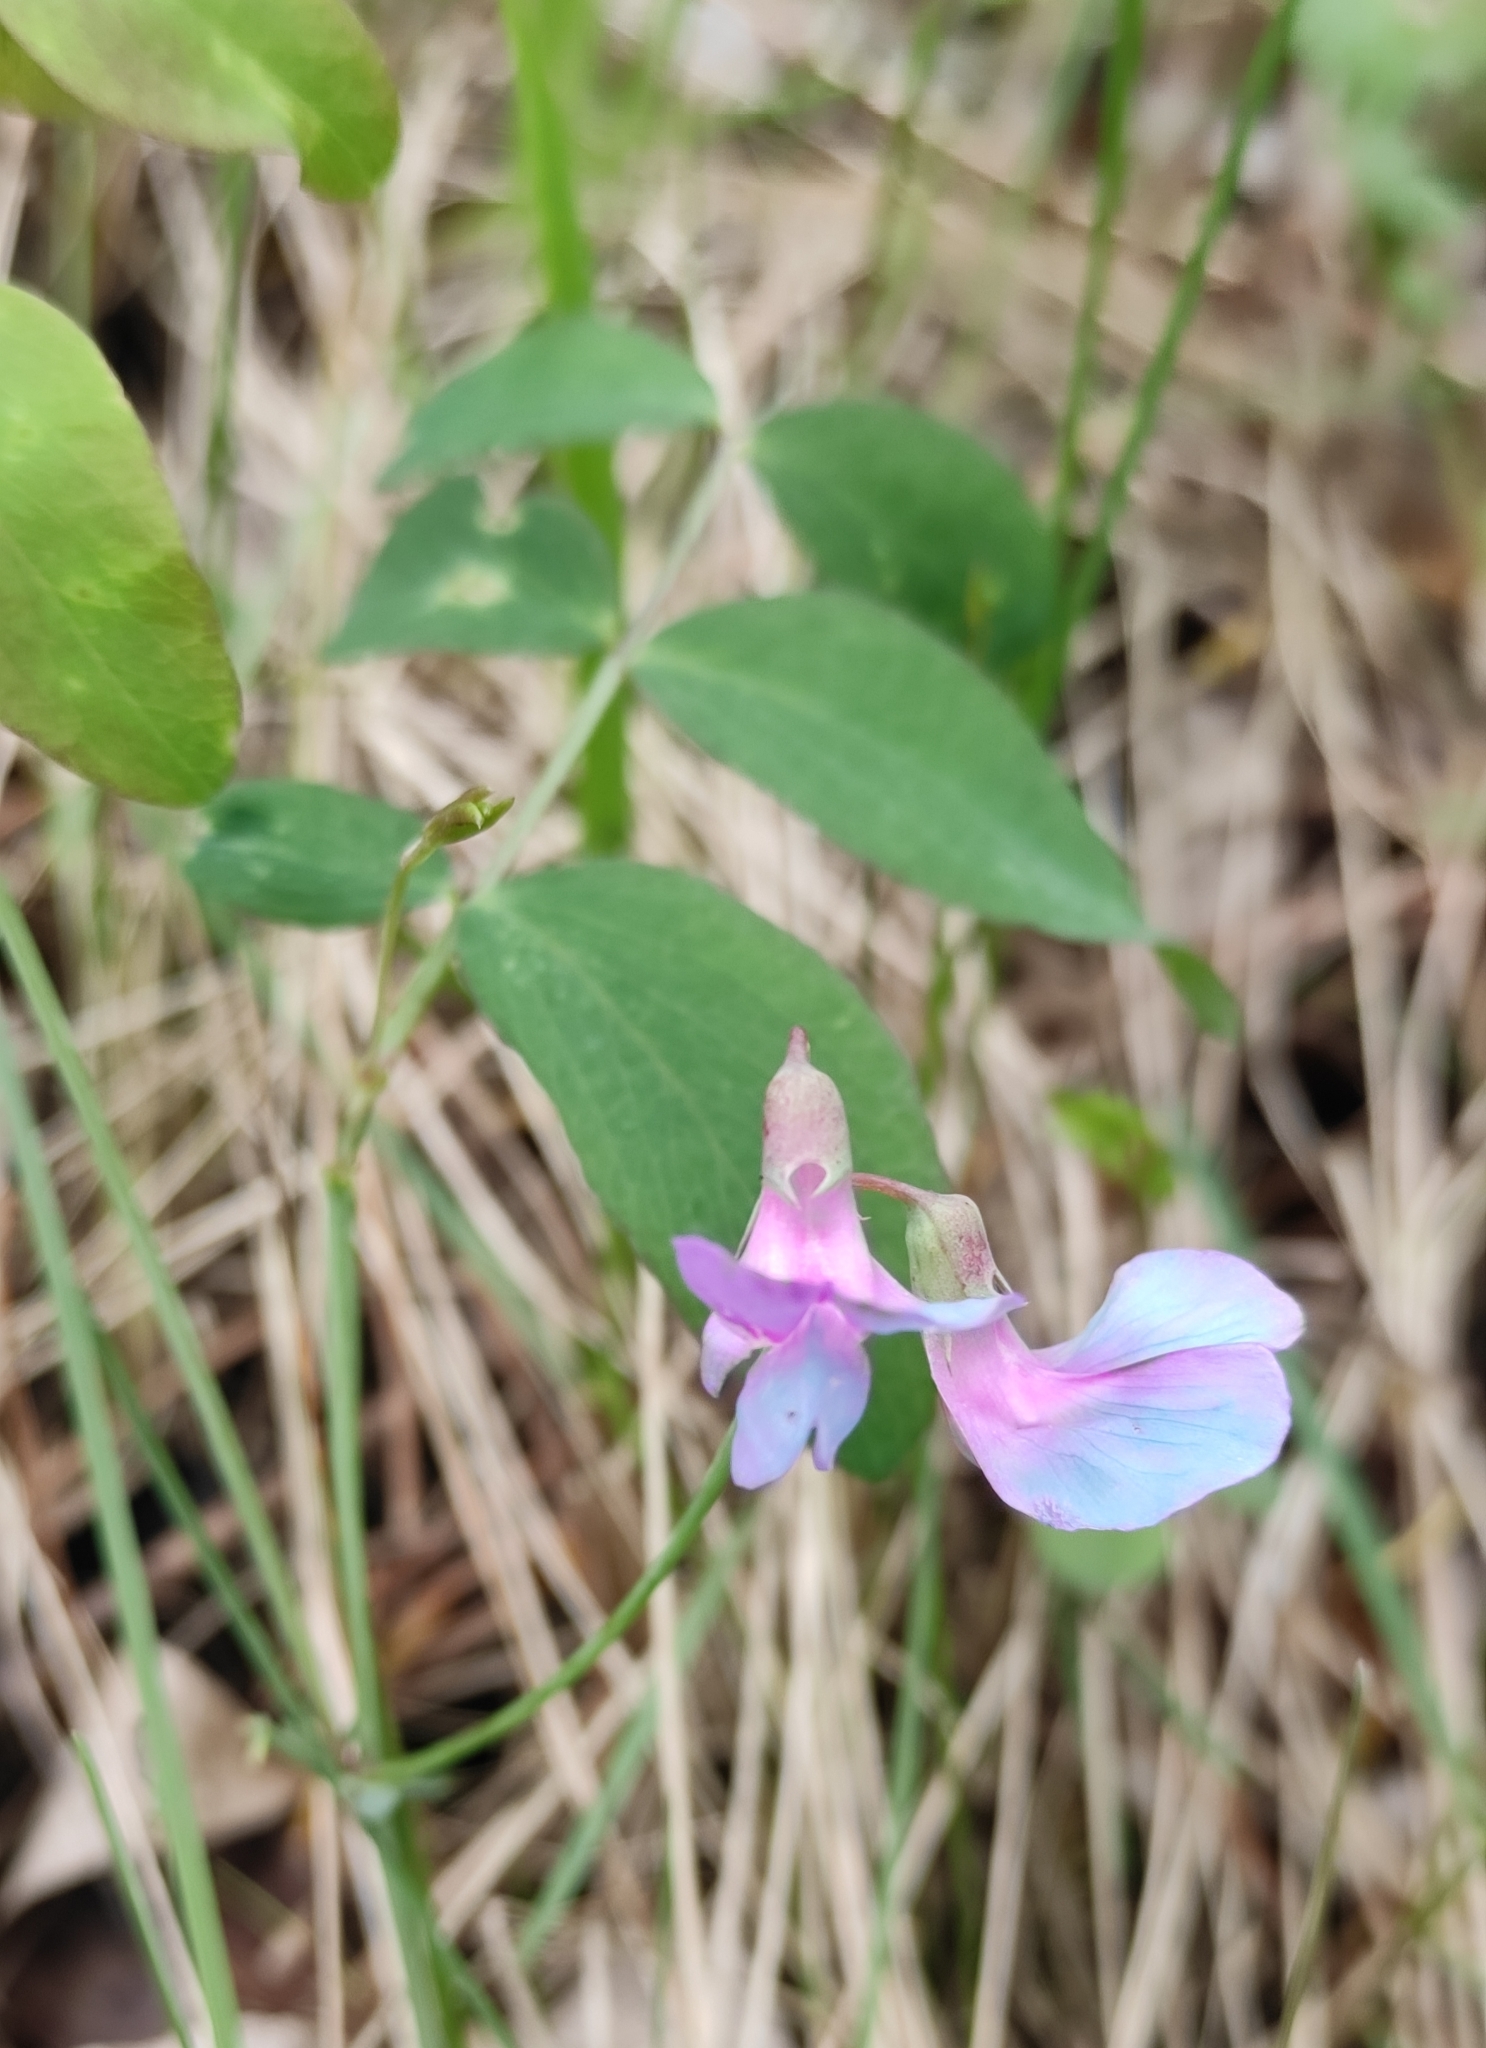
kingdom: Plantae
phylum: Tracheophyta
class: Magnoliopsida
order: Fabales
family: Fabaceae
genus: Lathyrus
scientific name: Lathyrus humilis
